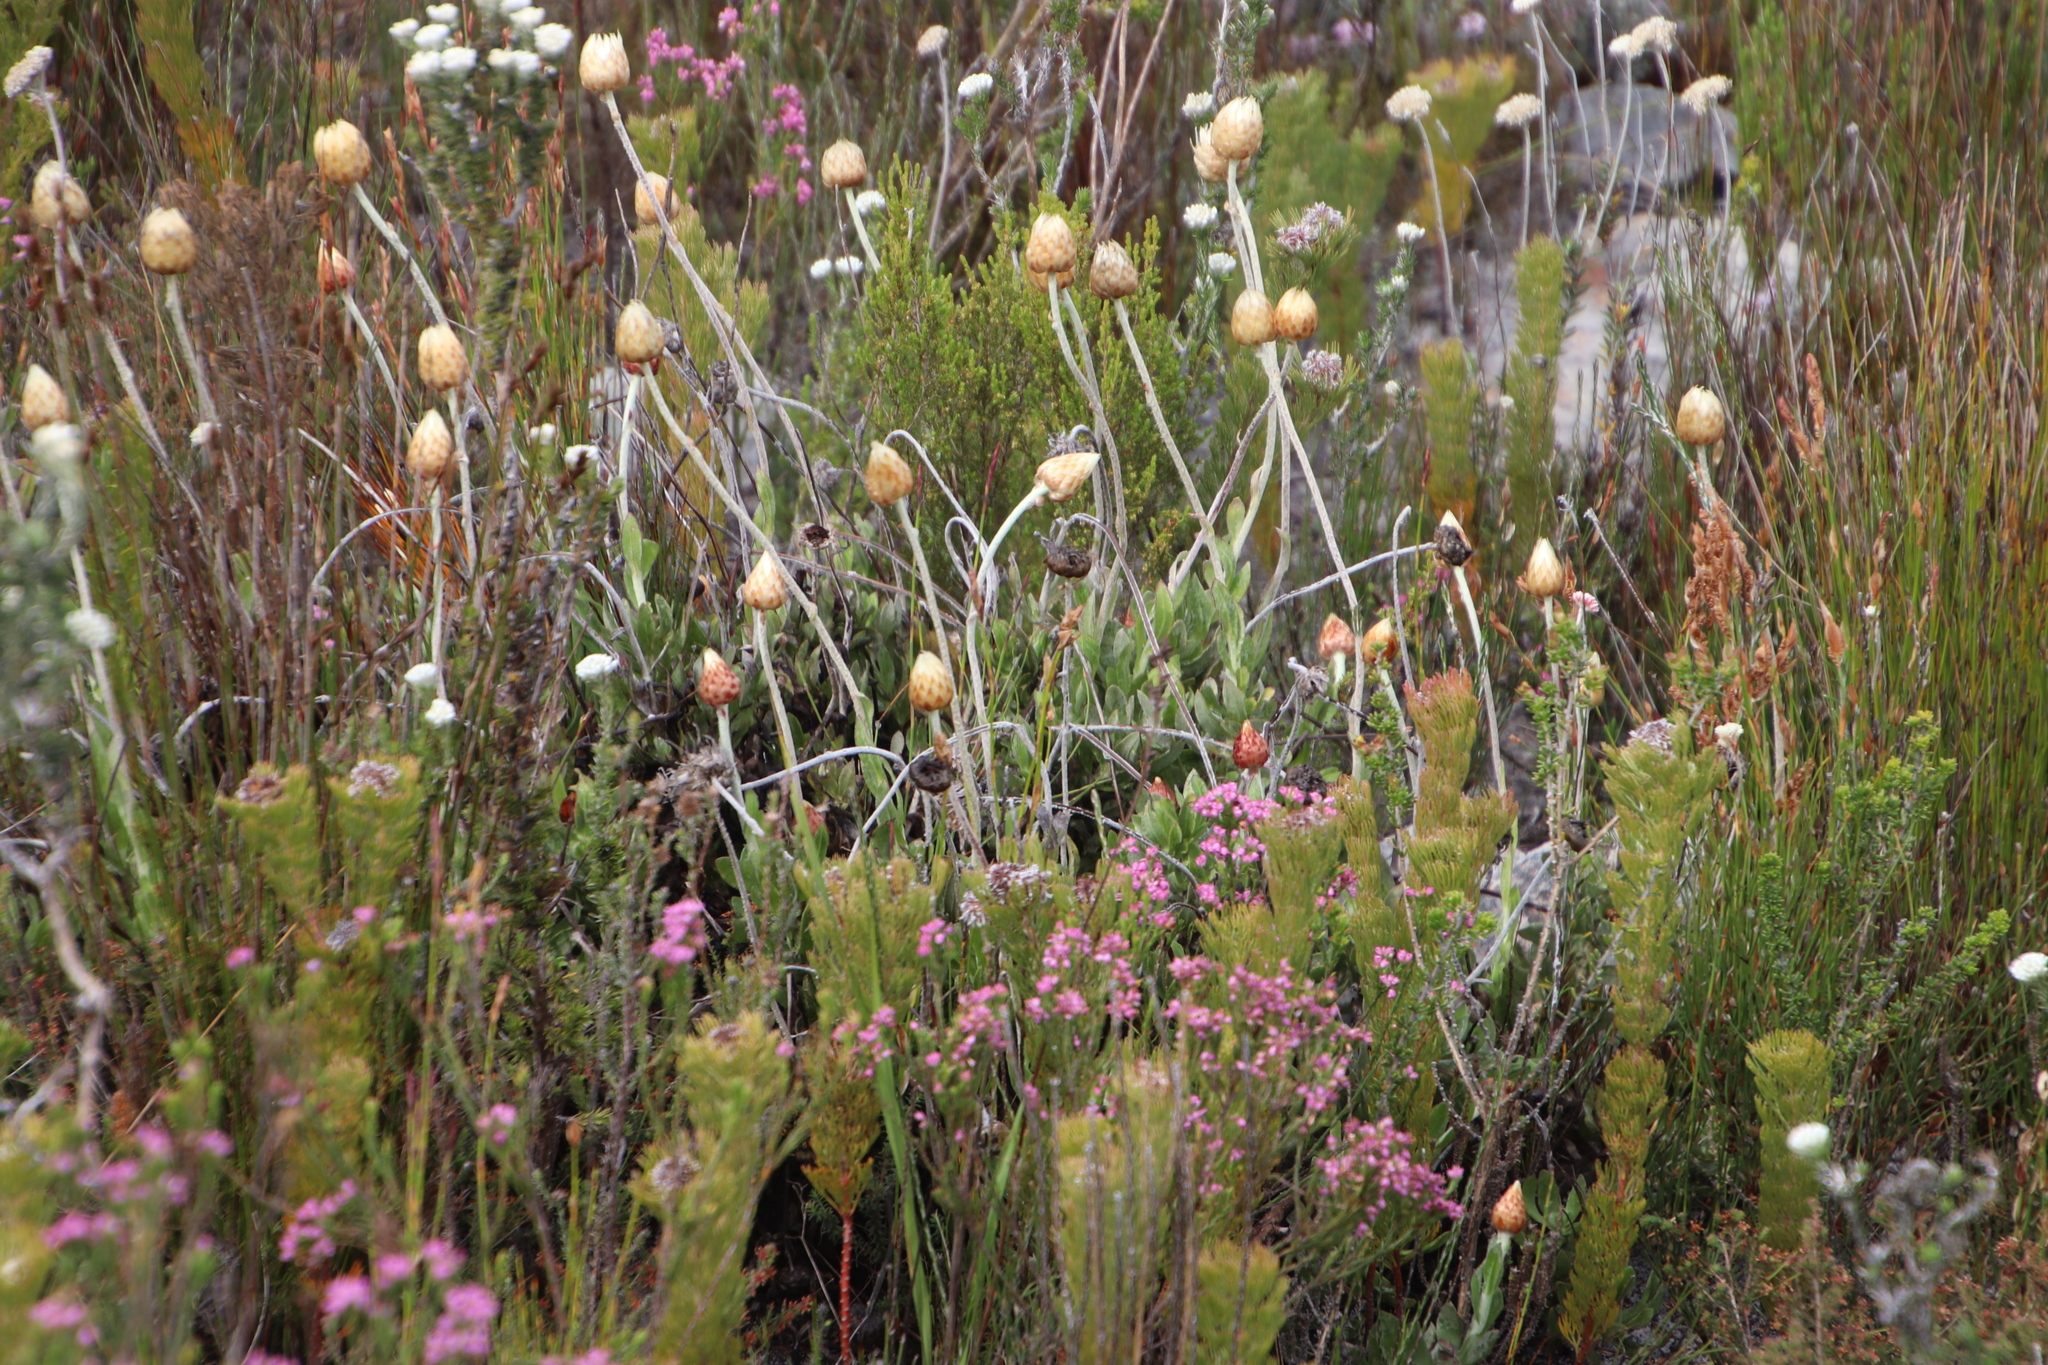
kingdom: Plantae
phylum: Tracheophyta
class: Magnoliopsida
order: Asterales
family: Asteraceae
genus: Syncarpha
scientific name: Syncarpha speciosissima
